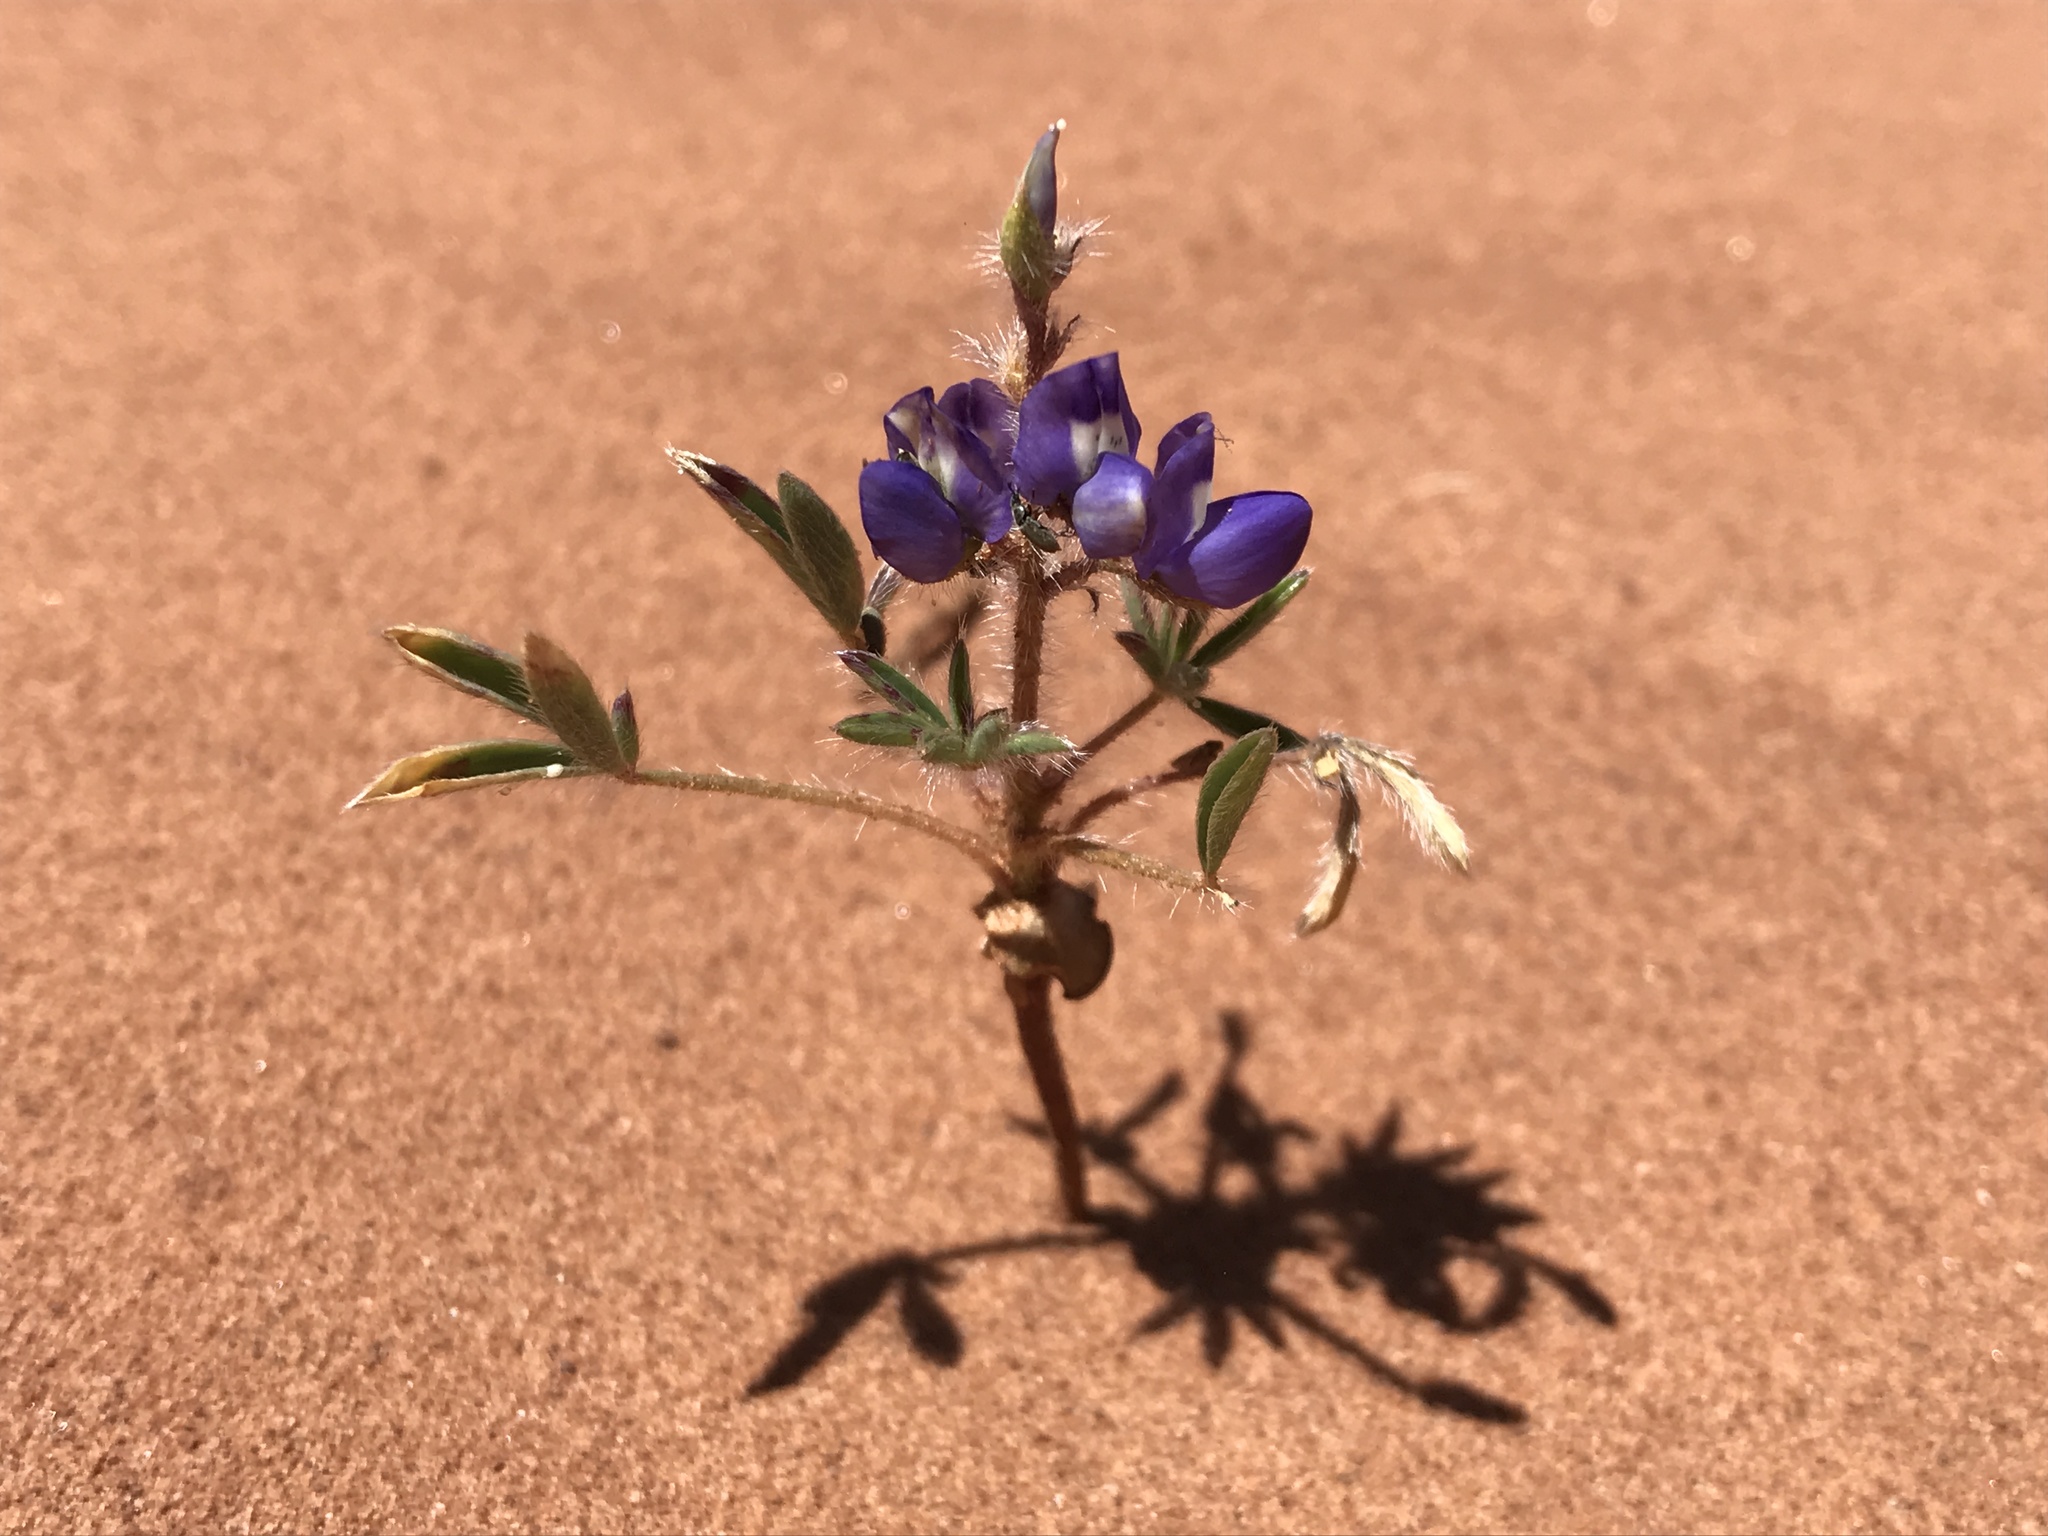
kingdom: Plantae
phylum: Tracheophyta
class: Magnoliopsida
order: Fabales
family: Fabaceae
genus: Lupinus
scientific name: Lupinus pusillus
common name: Low lupine
